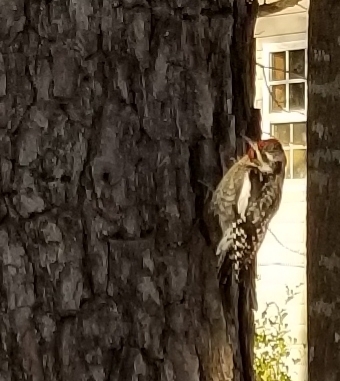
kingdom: Animalia
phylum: Chordata
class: Aves
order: Piciformes
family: Picidae
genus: Sphyrapicus
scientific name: Sphyrapicus varius
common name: Yellow-bellied sapsucker
